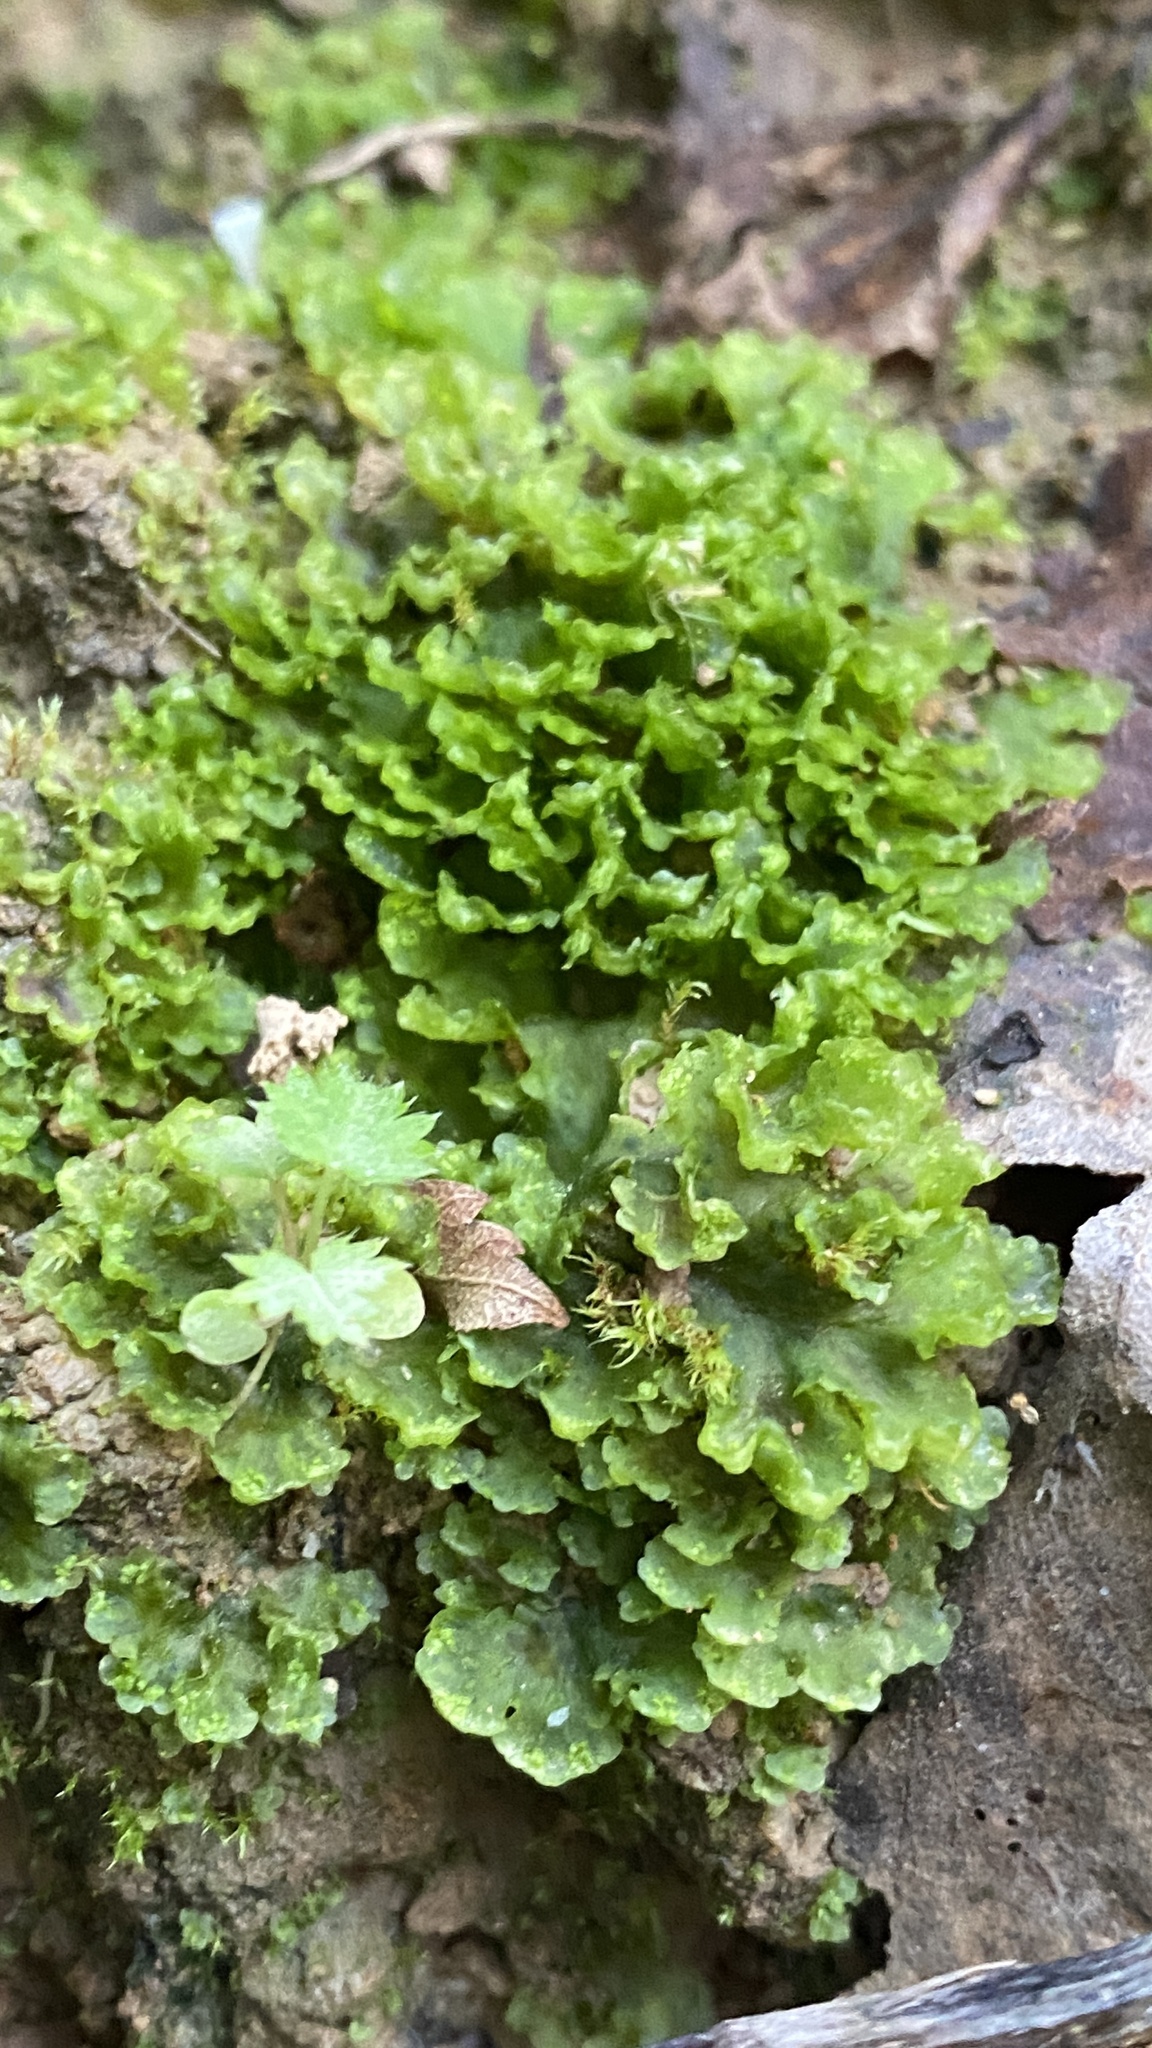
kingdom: Plantae
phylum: Marchantiophyta
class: Marchantiopsida
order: Blasiales
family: Blasiaceae
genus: Blasia
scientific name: Blasia pusilla
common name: Common kettlewort
